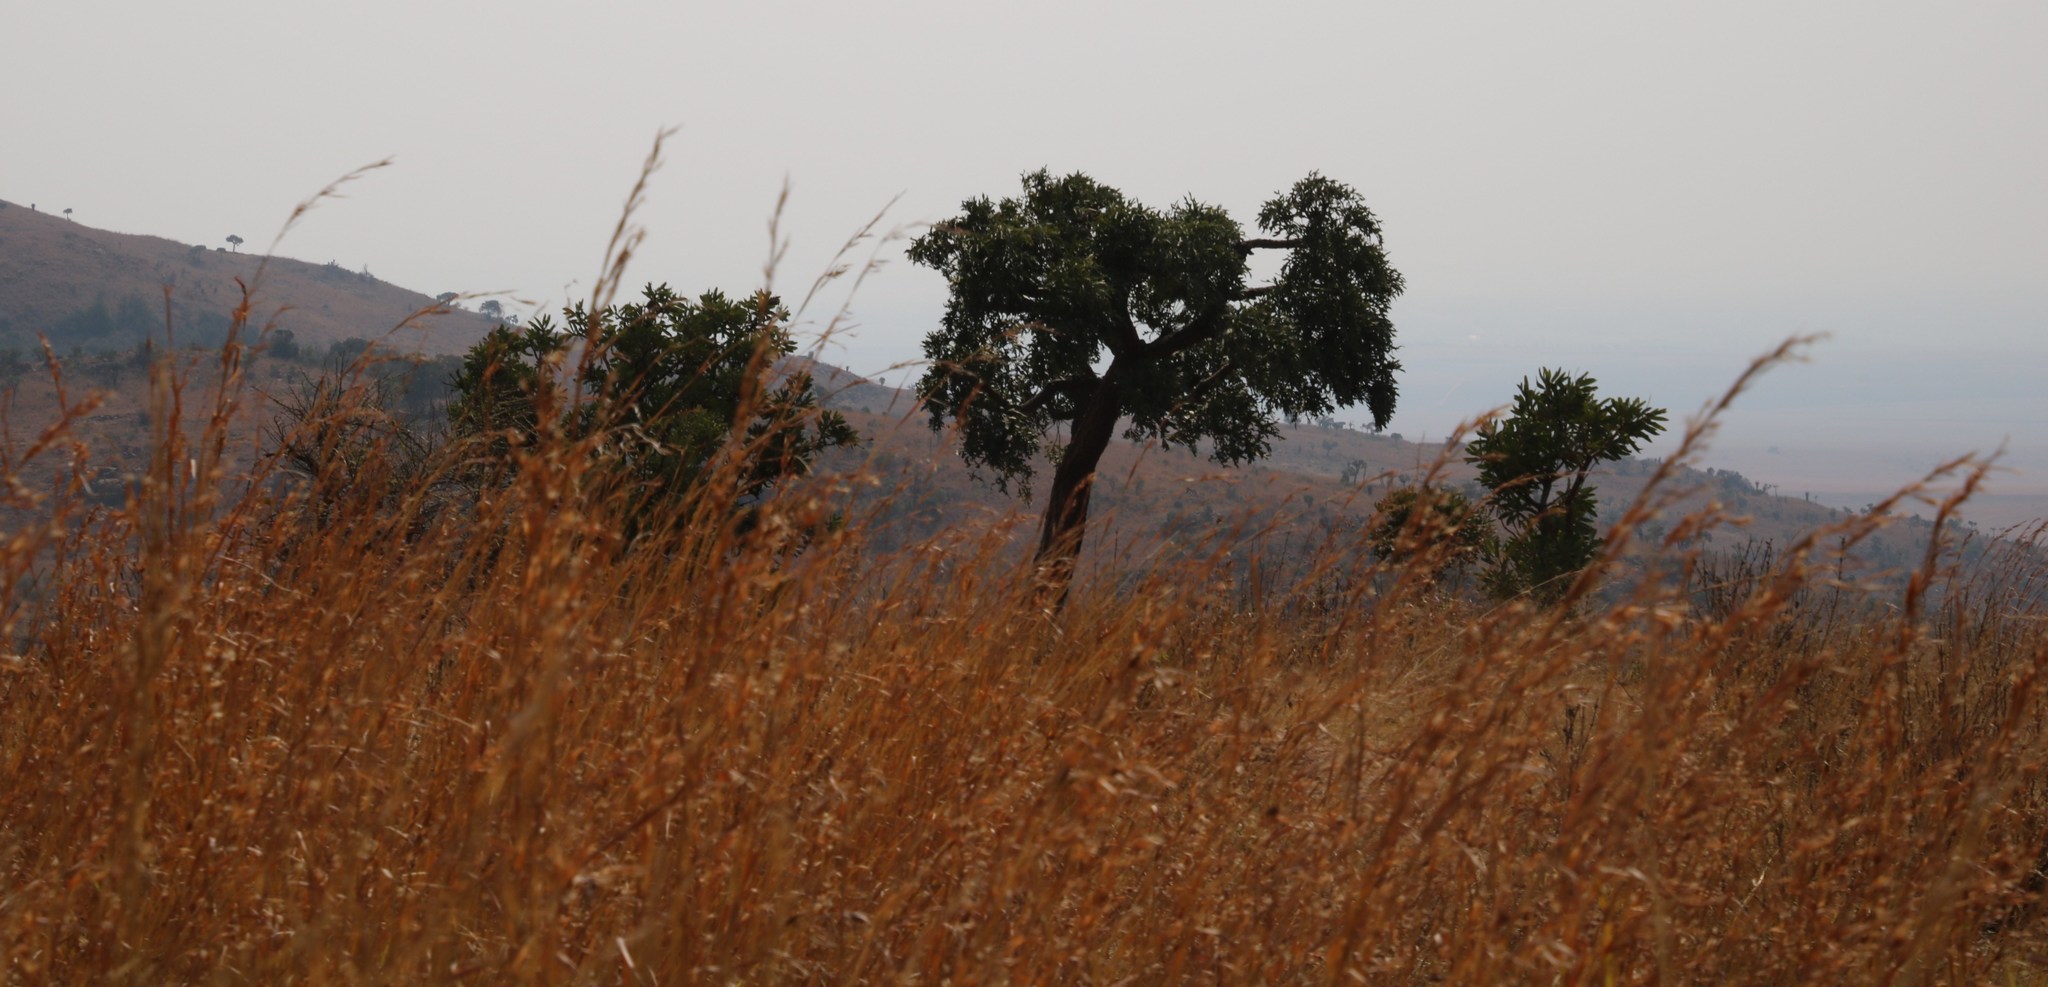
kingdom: Plantae
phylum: Tracheophyta
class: Magnoliopsida
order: Apiales
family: Araliaceae
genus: Cussonia
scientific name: Cussonia paniculata
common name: Cabbagetree
